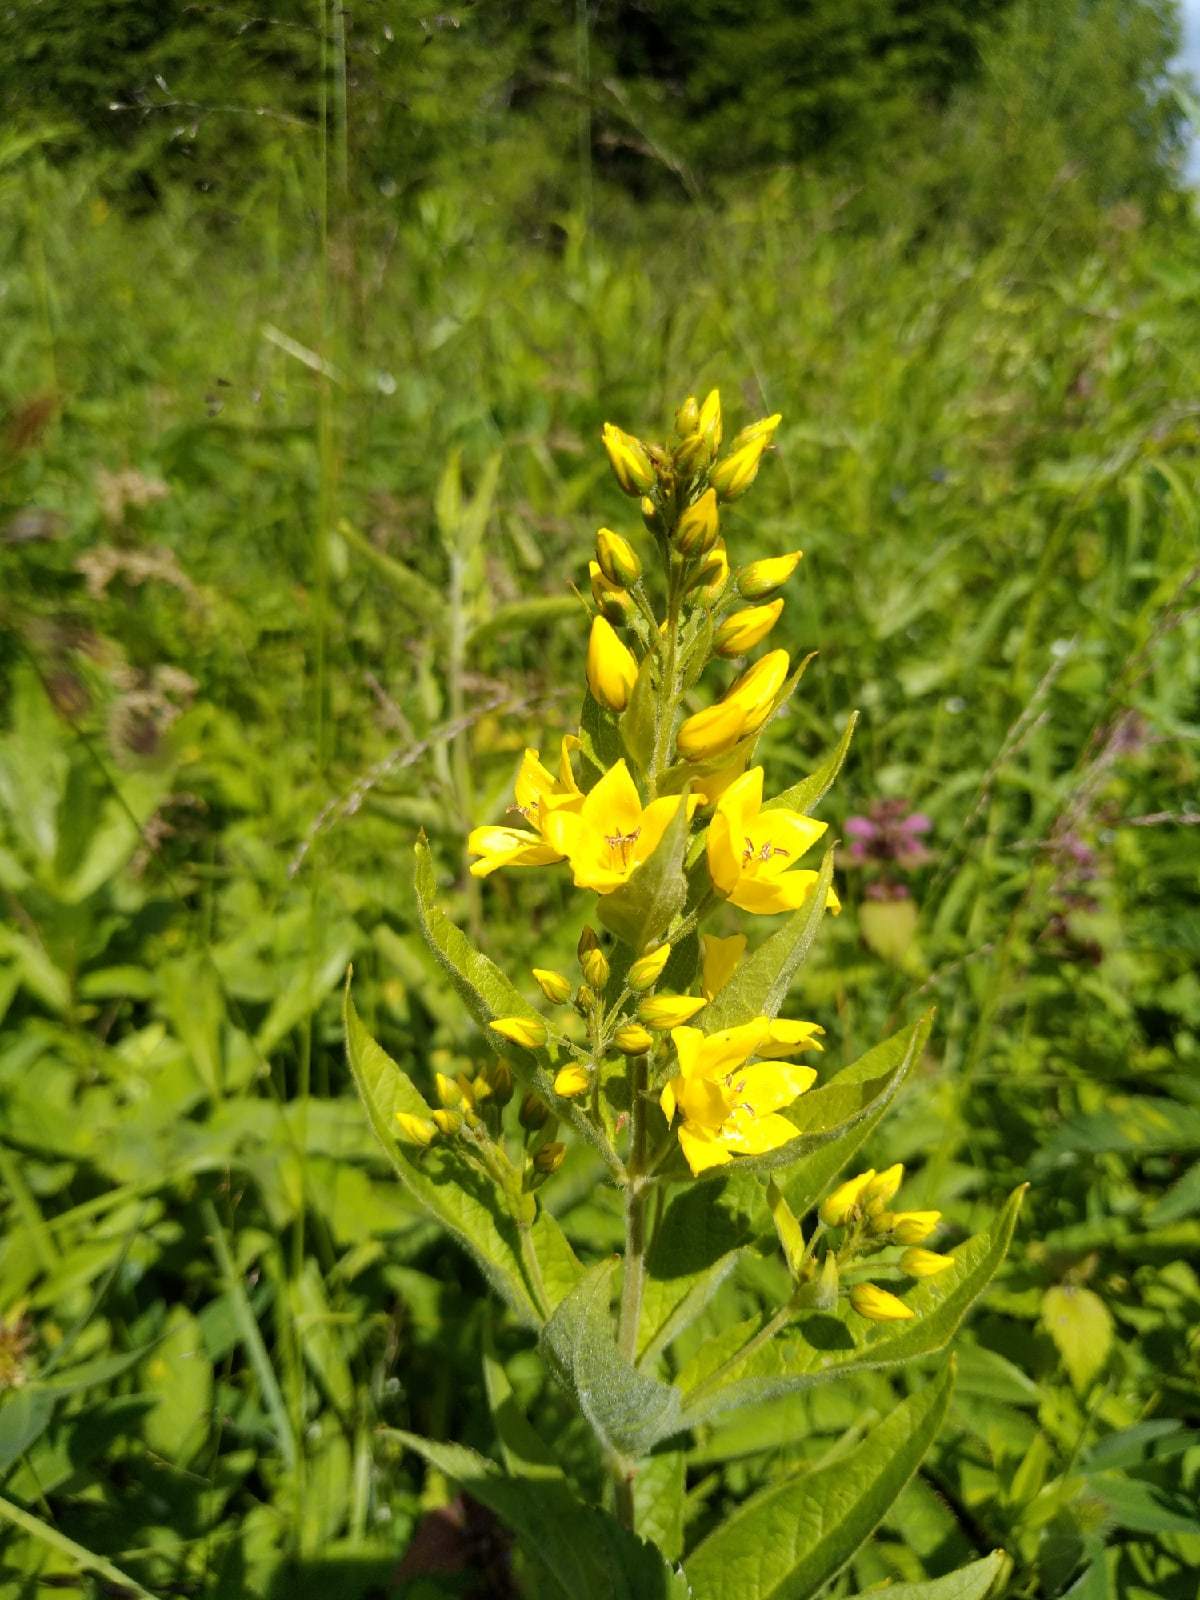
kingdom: Plantae
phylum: Tracheophyta
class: Magnoliopsida
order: Ericales
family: Primulaceae
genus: Lysimachia
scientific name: Lysimachia vulgaris
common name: Yellow loosestrife
